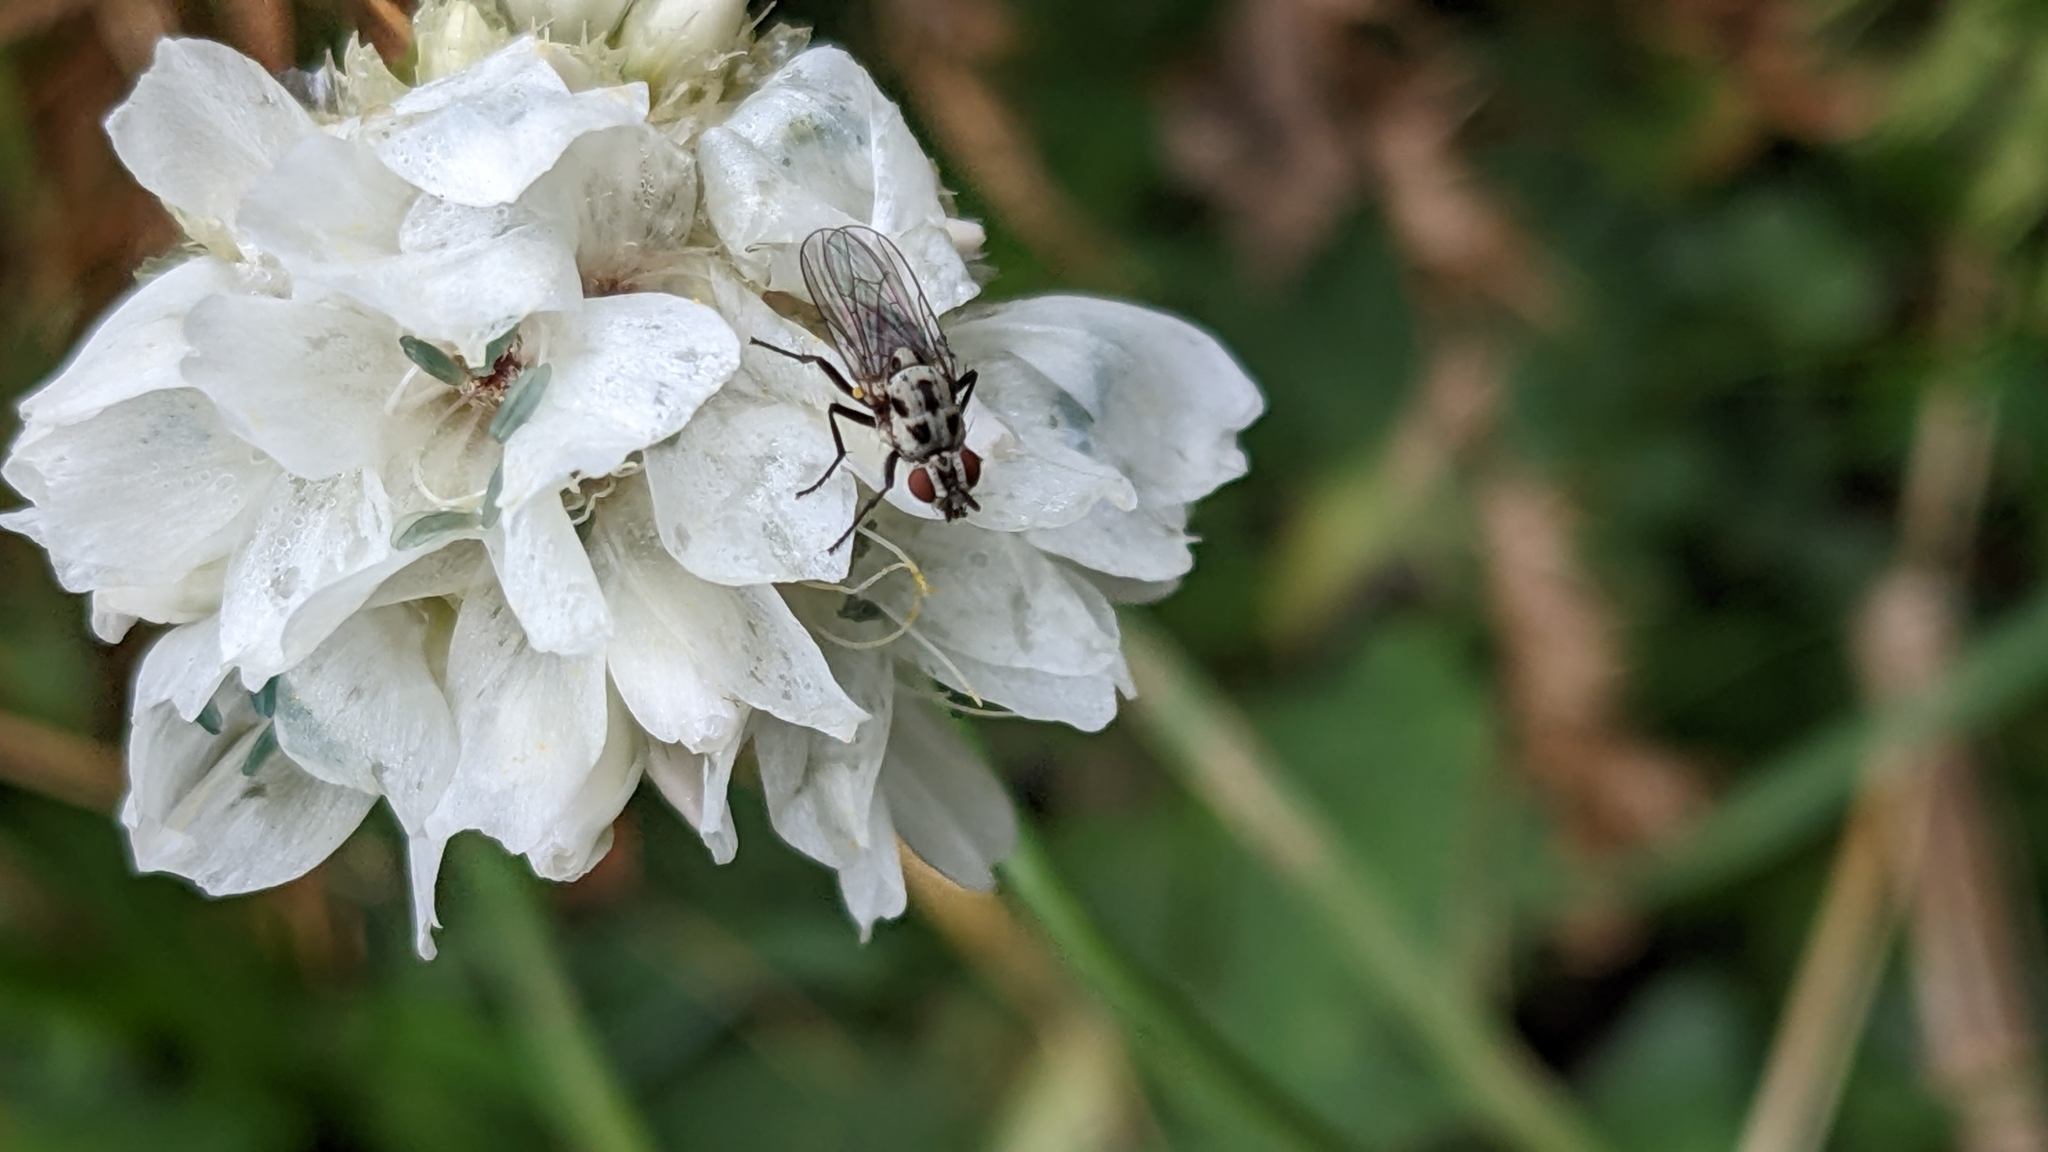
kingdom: Plantae
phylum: Tracheophyta
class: Magnoliopsida
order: Caryophyllales
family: Plumbaginaceae
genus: Armeria
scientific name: Armeria pubinervis
